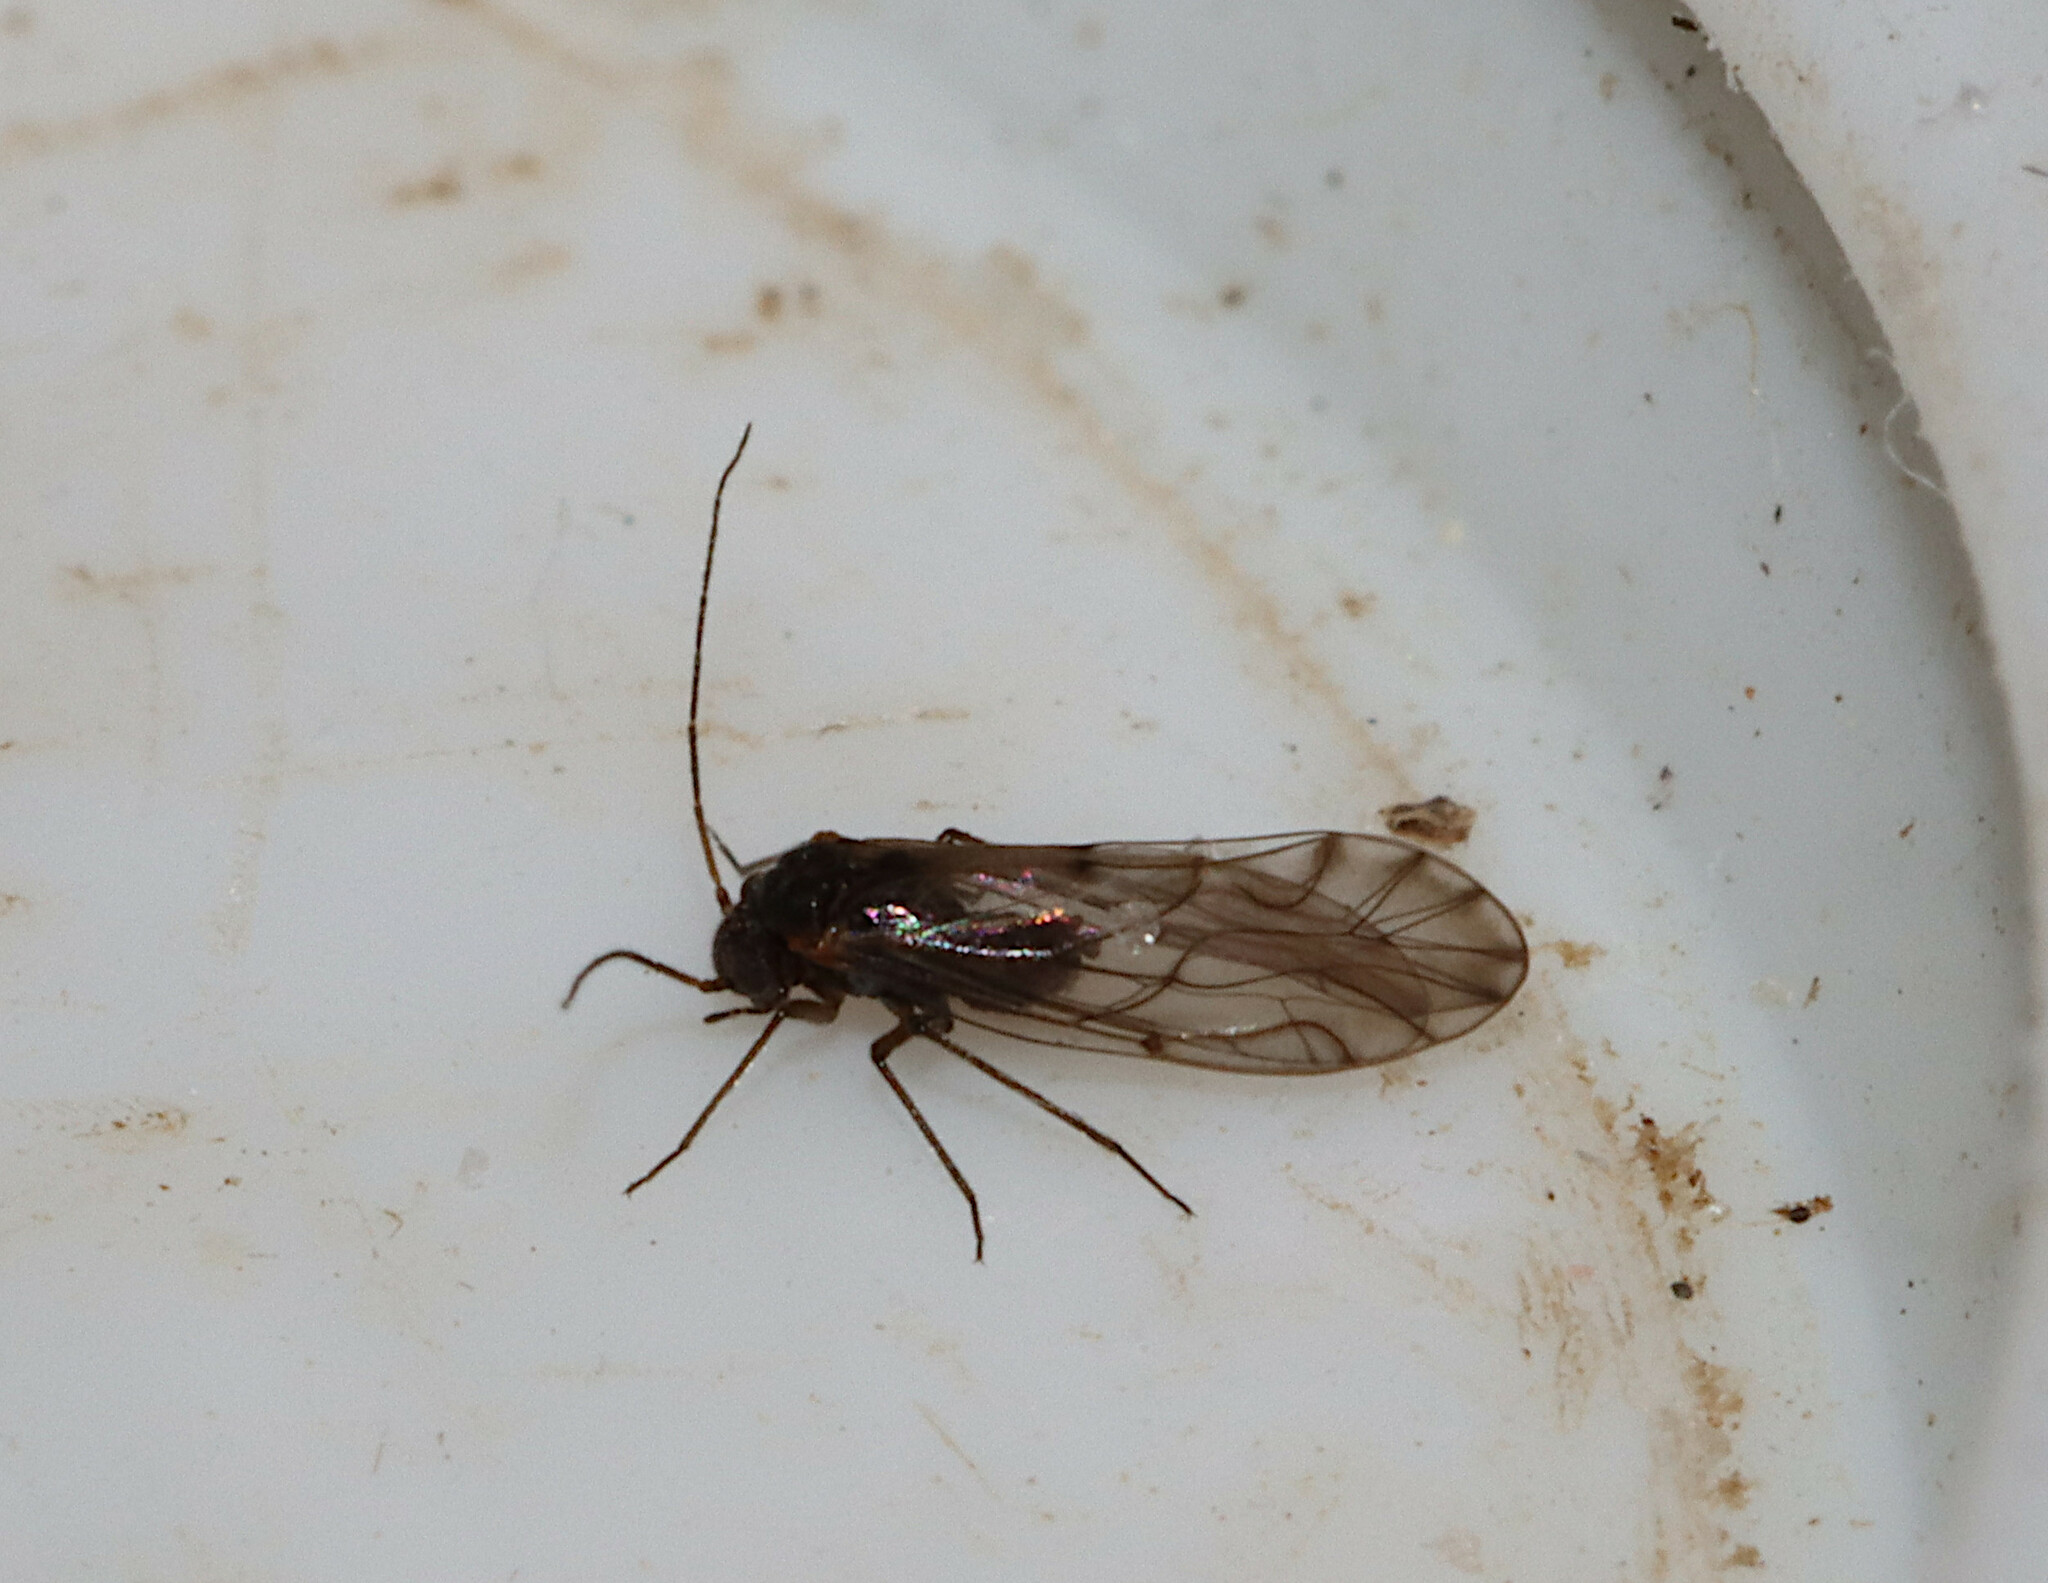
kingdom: Animalia
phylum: Arthropoda
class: Insecta
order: Psocodea
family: Lachesillidae
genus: Lachesilla
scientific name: Lachesilla nubilis
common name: Bark lice
